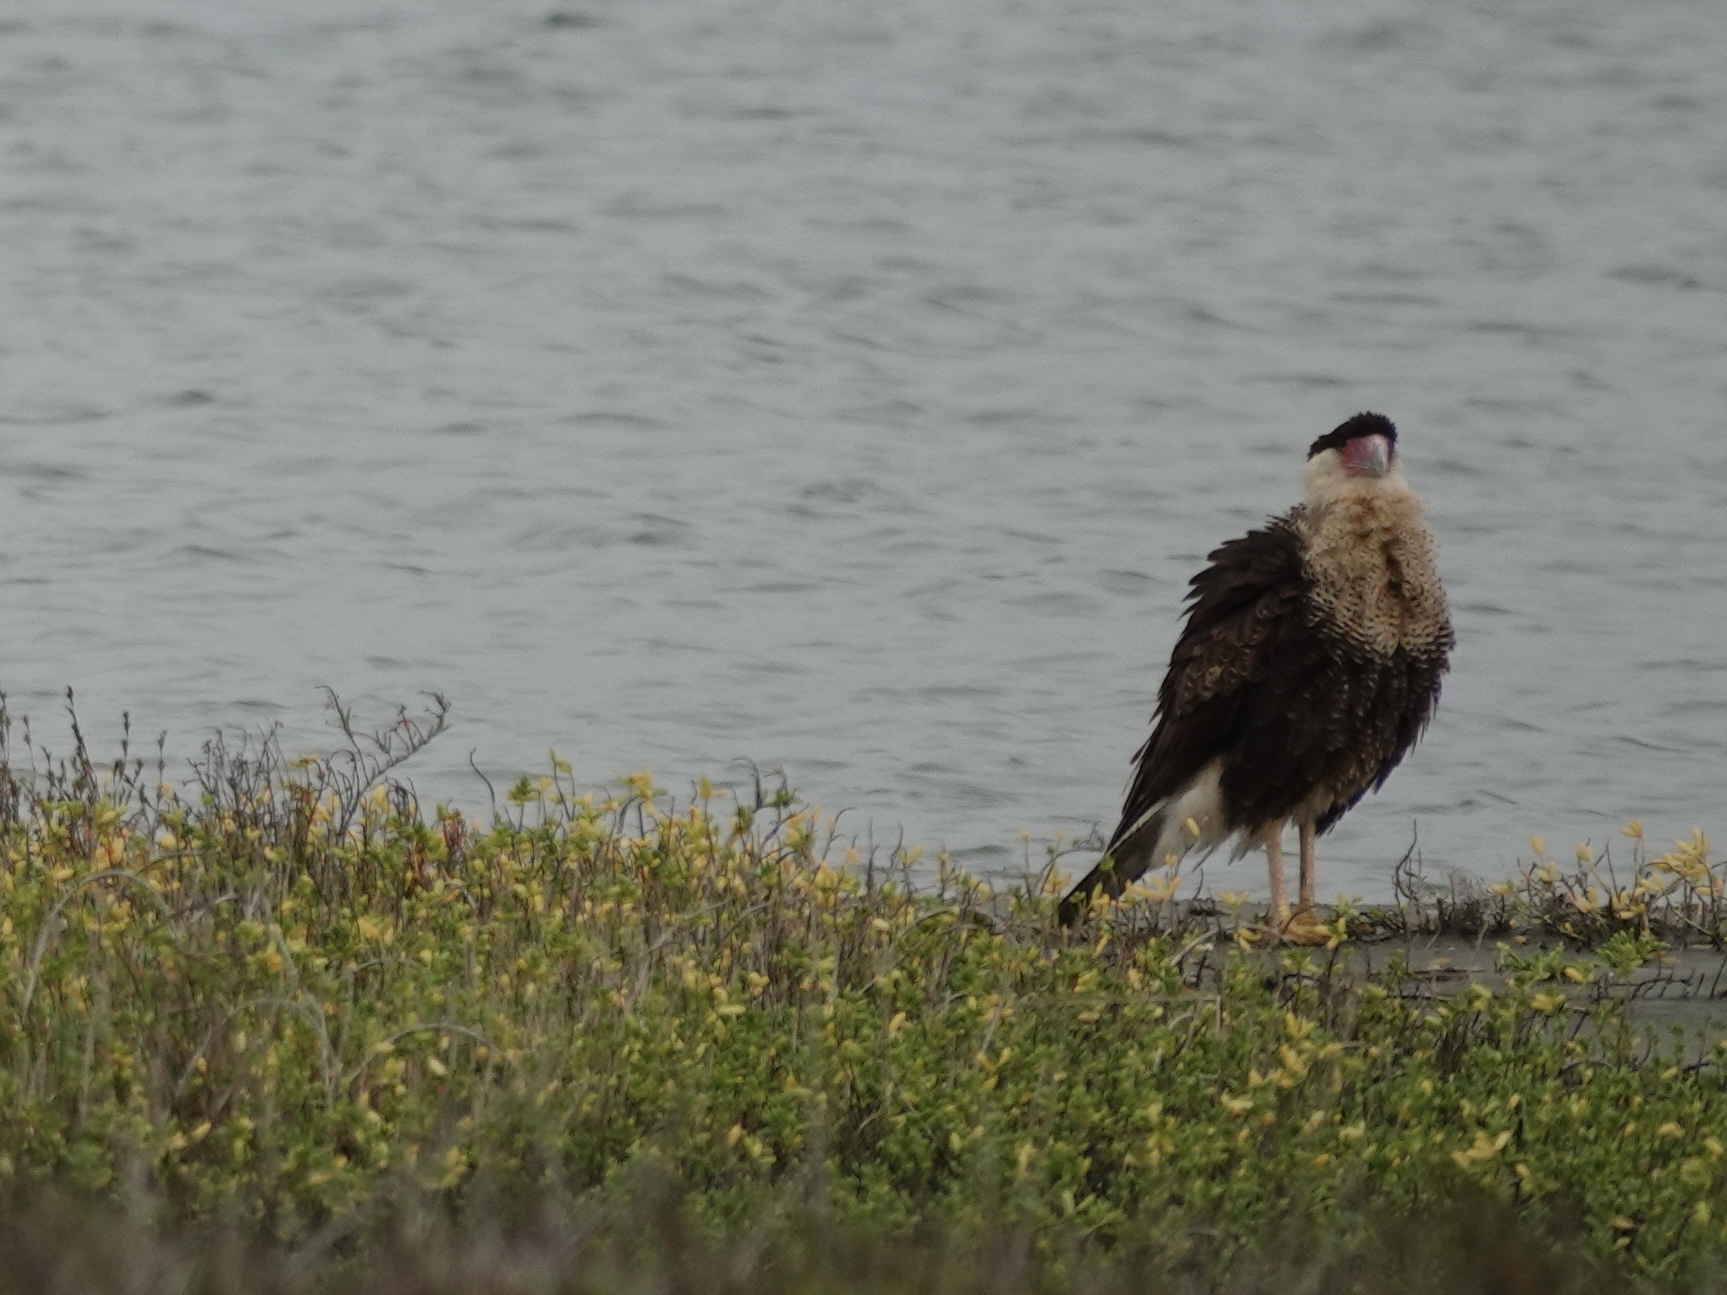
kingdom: Animalia
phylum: Chordata
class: Aves
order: Falconiformes
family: Falconidae
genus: Caracara
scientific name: Caracara plancus
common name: Southern caracara
